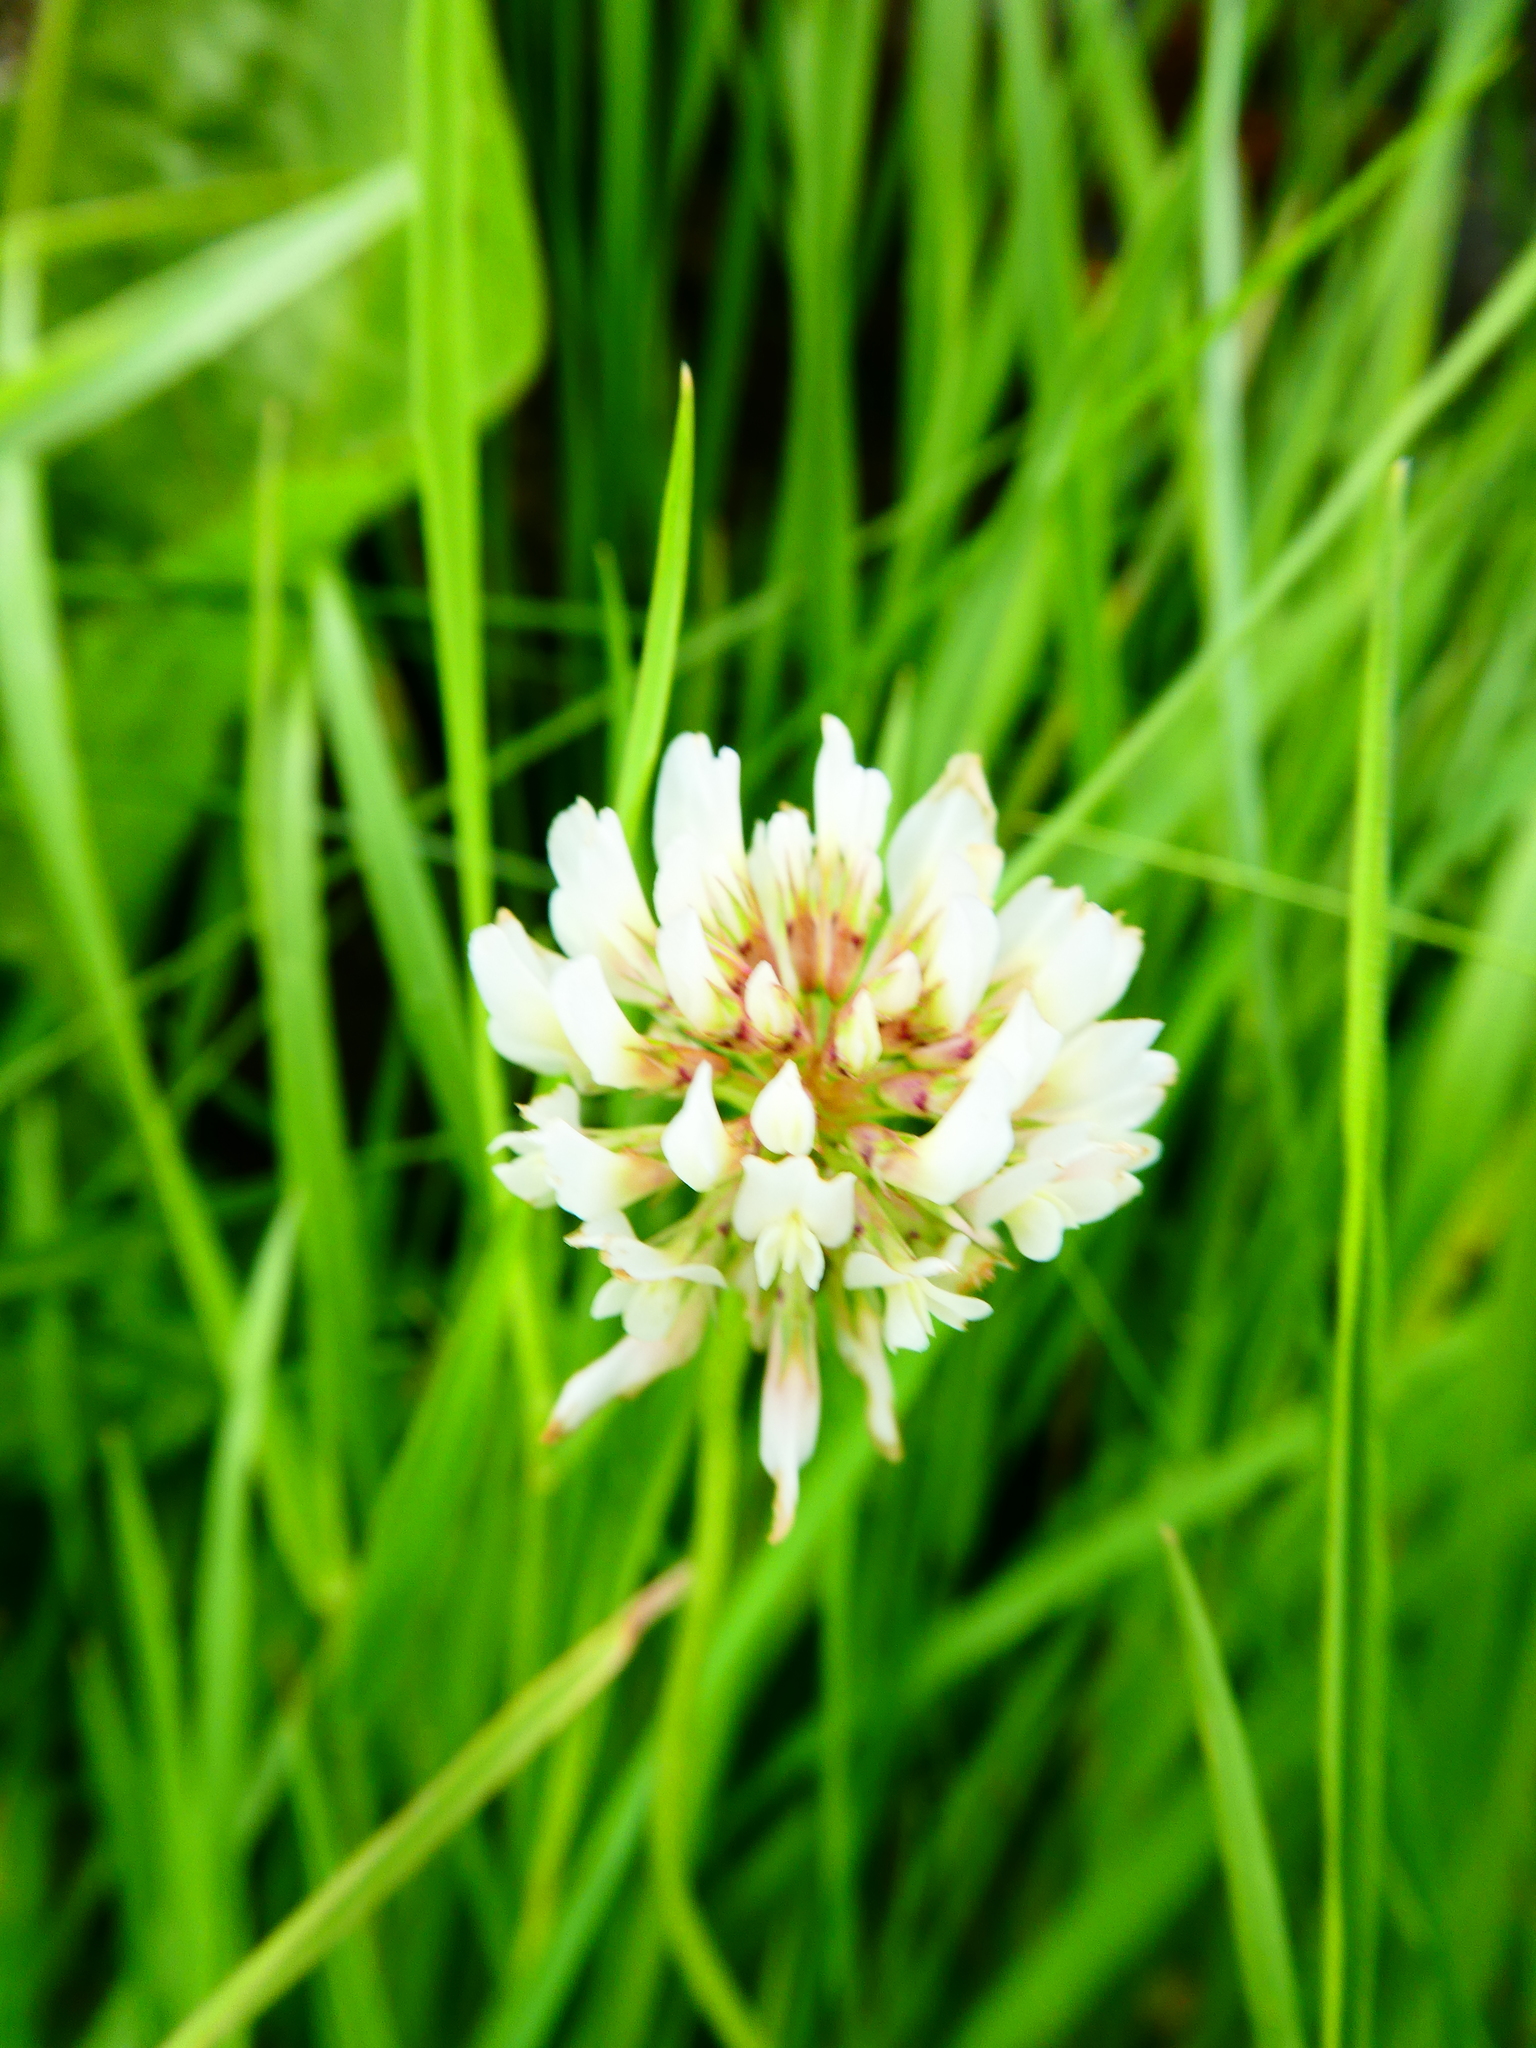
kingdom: Plantae
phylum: Tracheophyta
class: Magnoliopsida
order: Fabales
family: Fabaceae
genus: Trifolium
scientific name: Trifolium repens
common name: White clover
